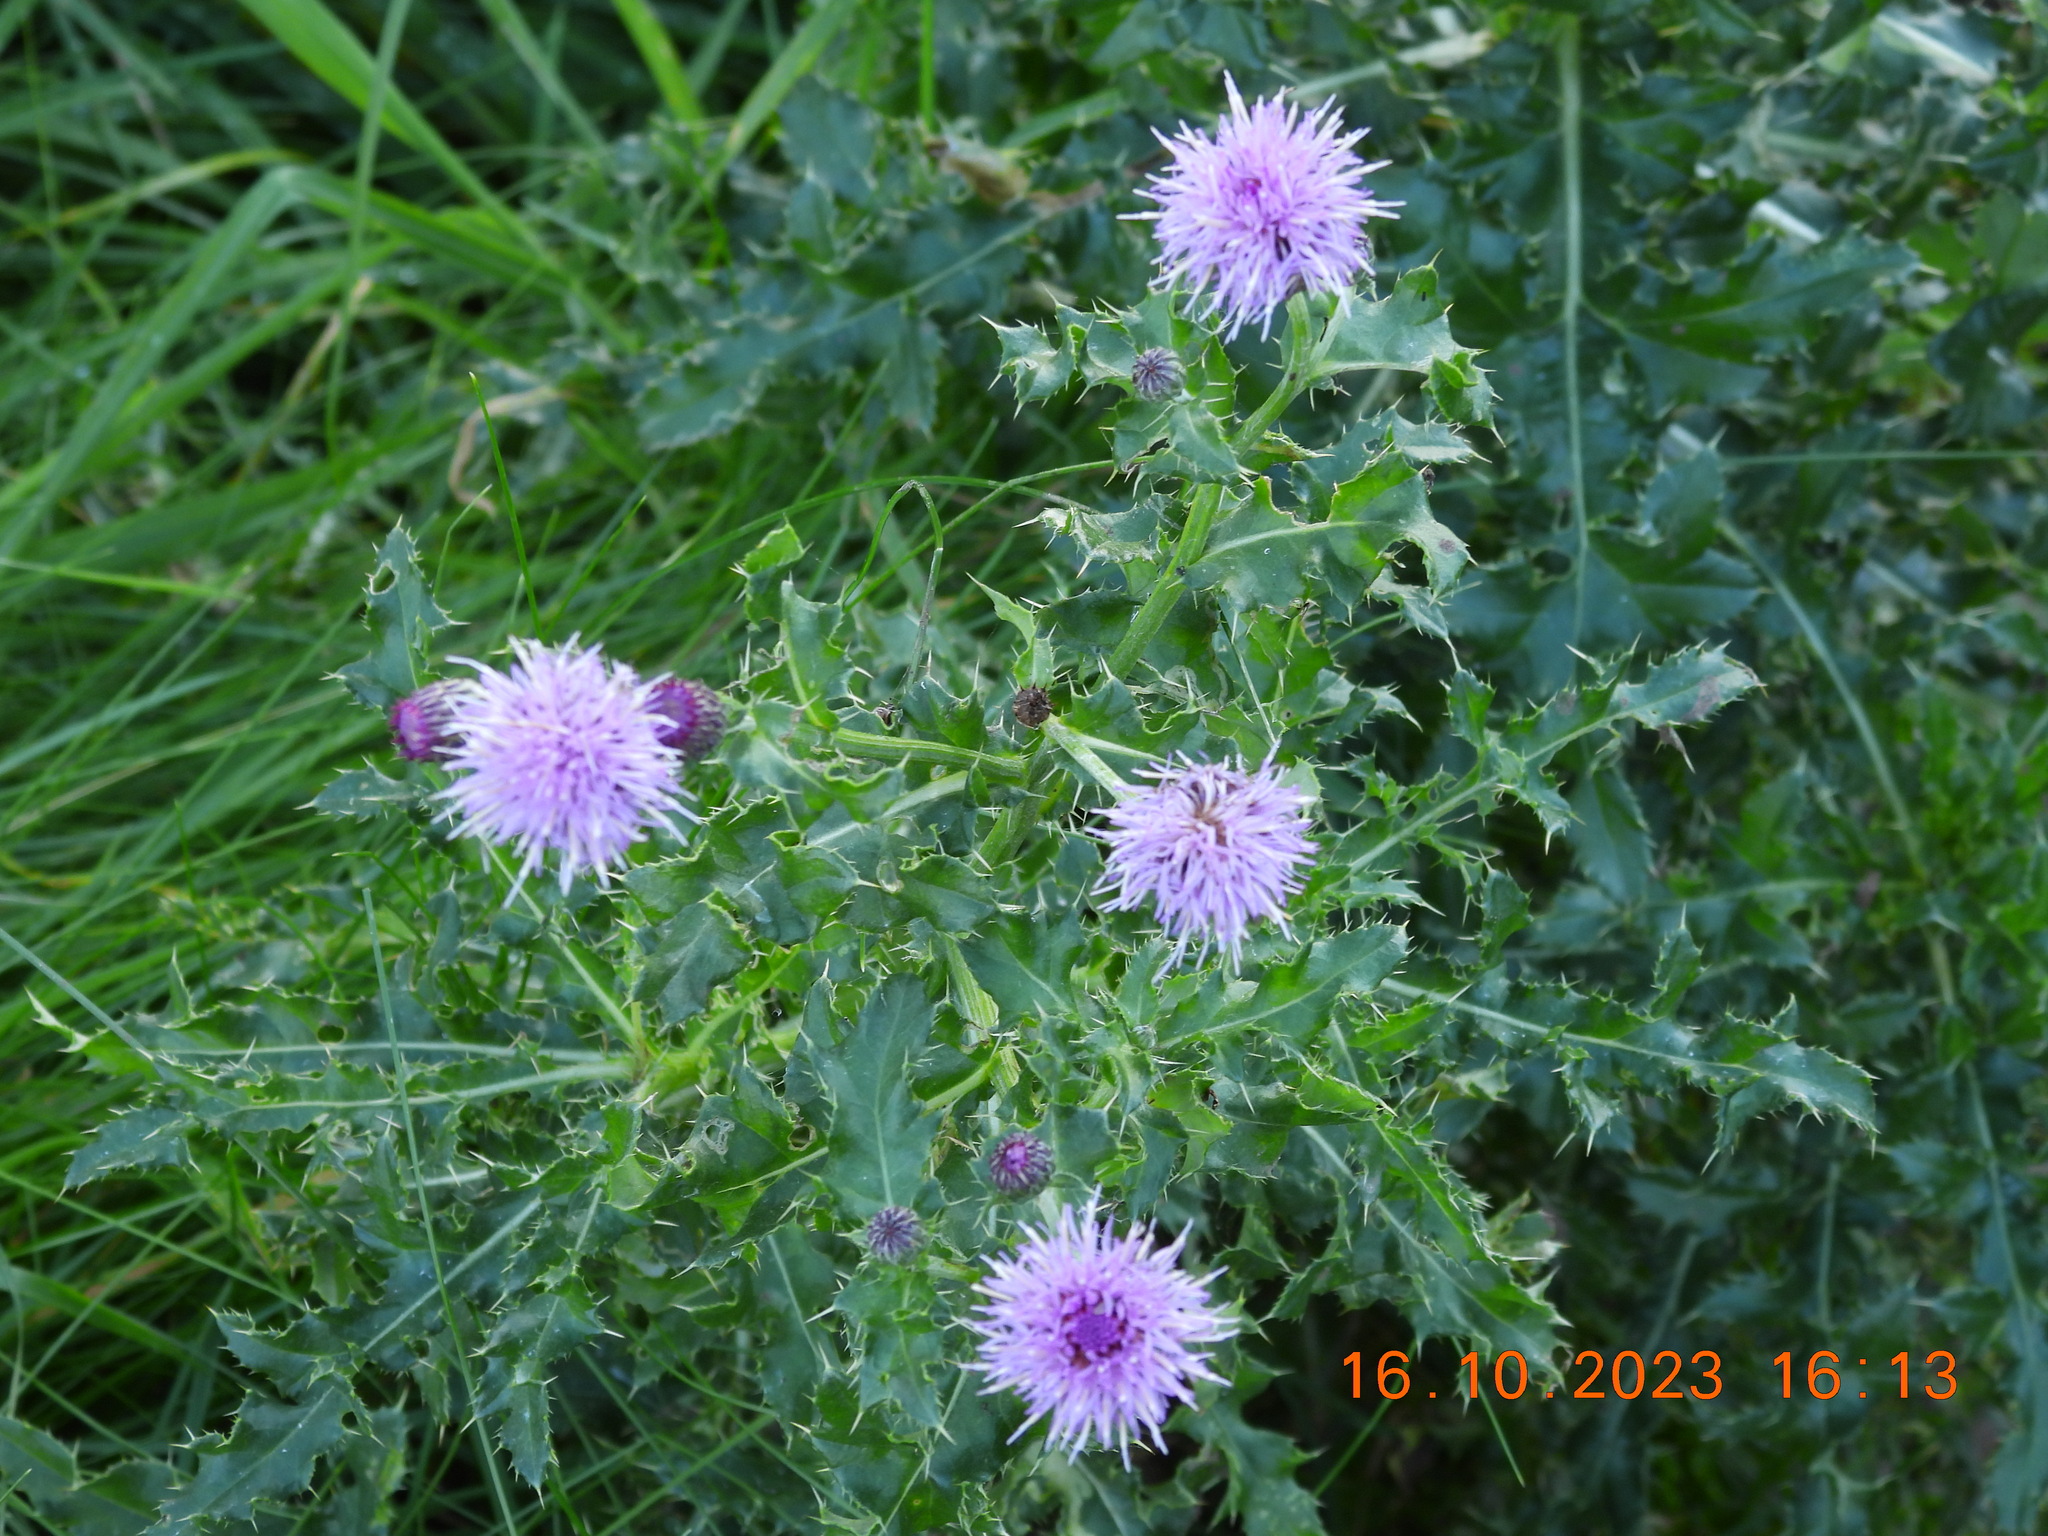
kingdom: Plantae
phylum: Tracheophyta
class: Magnoliopsida
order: Asterales
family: Asteraceae
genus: Cirsium
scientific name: Cirsium arvense
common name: Creeping thistle
